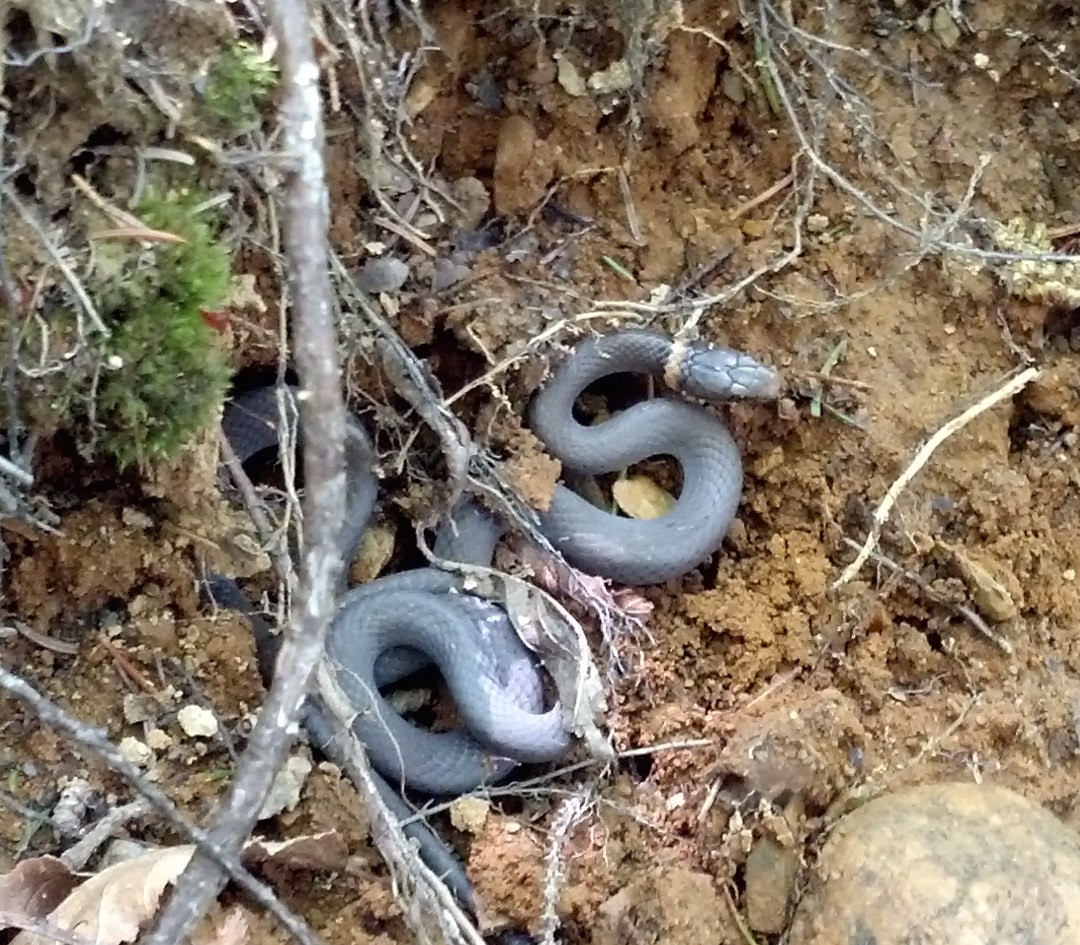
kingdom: Animalia
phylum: Chordata
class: Squamata
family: Colubridae
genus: Diadophis
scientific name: Diadophis punctatus
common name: Ringneck snake
